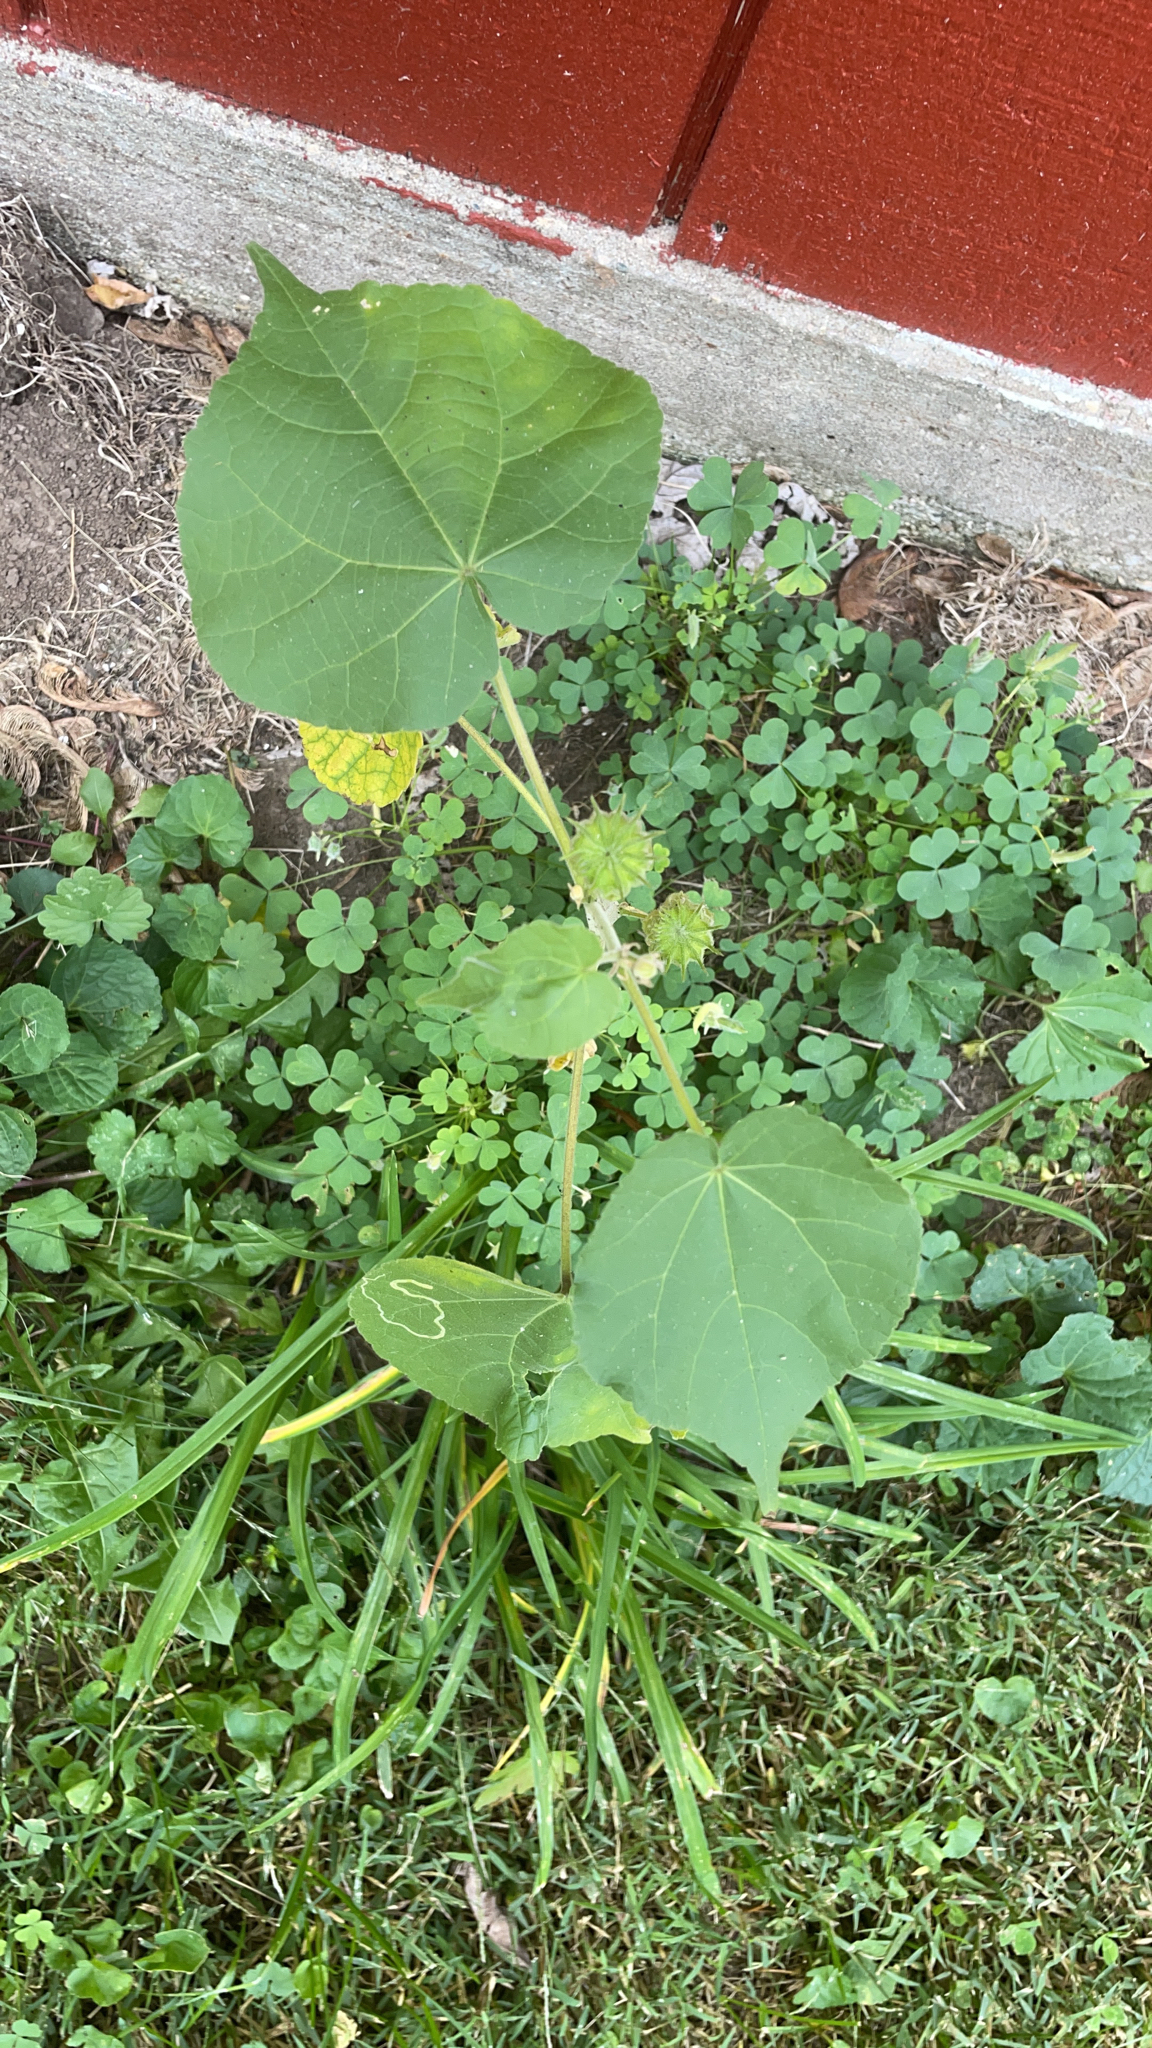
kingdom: Plantae
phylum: Tracheophyta
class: Magnoliopsida
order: Malvales
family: Malvaceae
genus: Abutilon
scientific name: Abutilon theophrasti
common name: Velvetleaf
